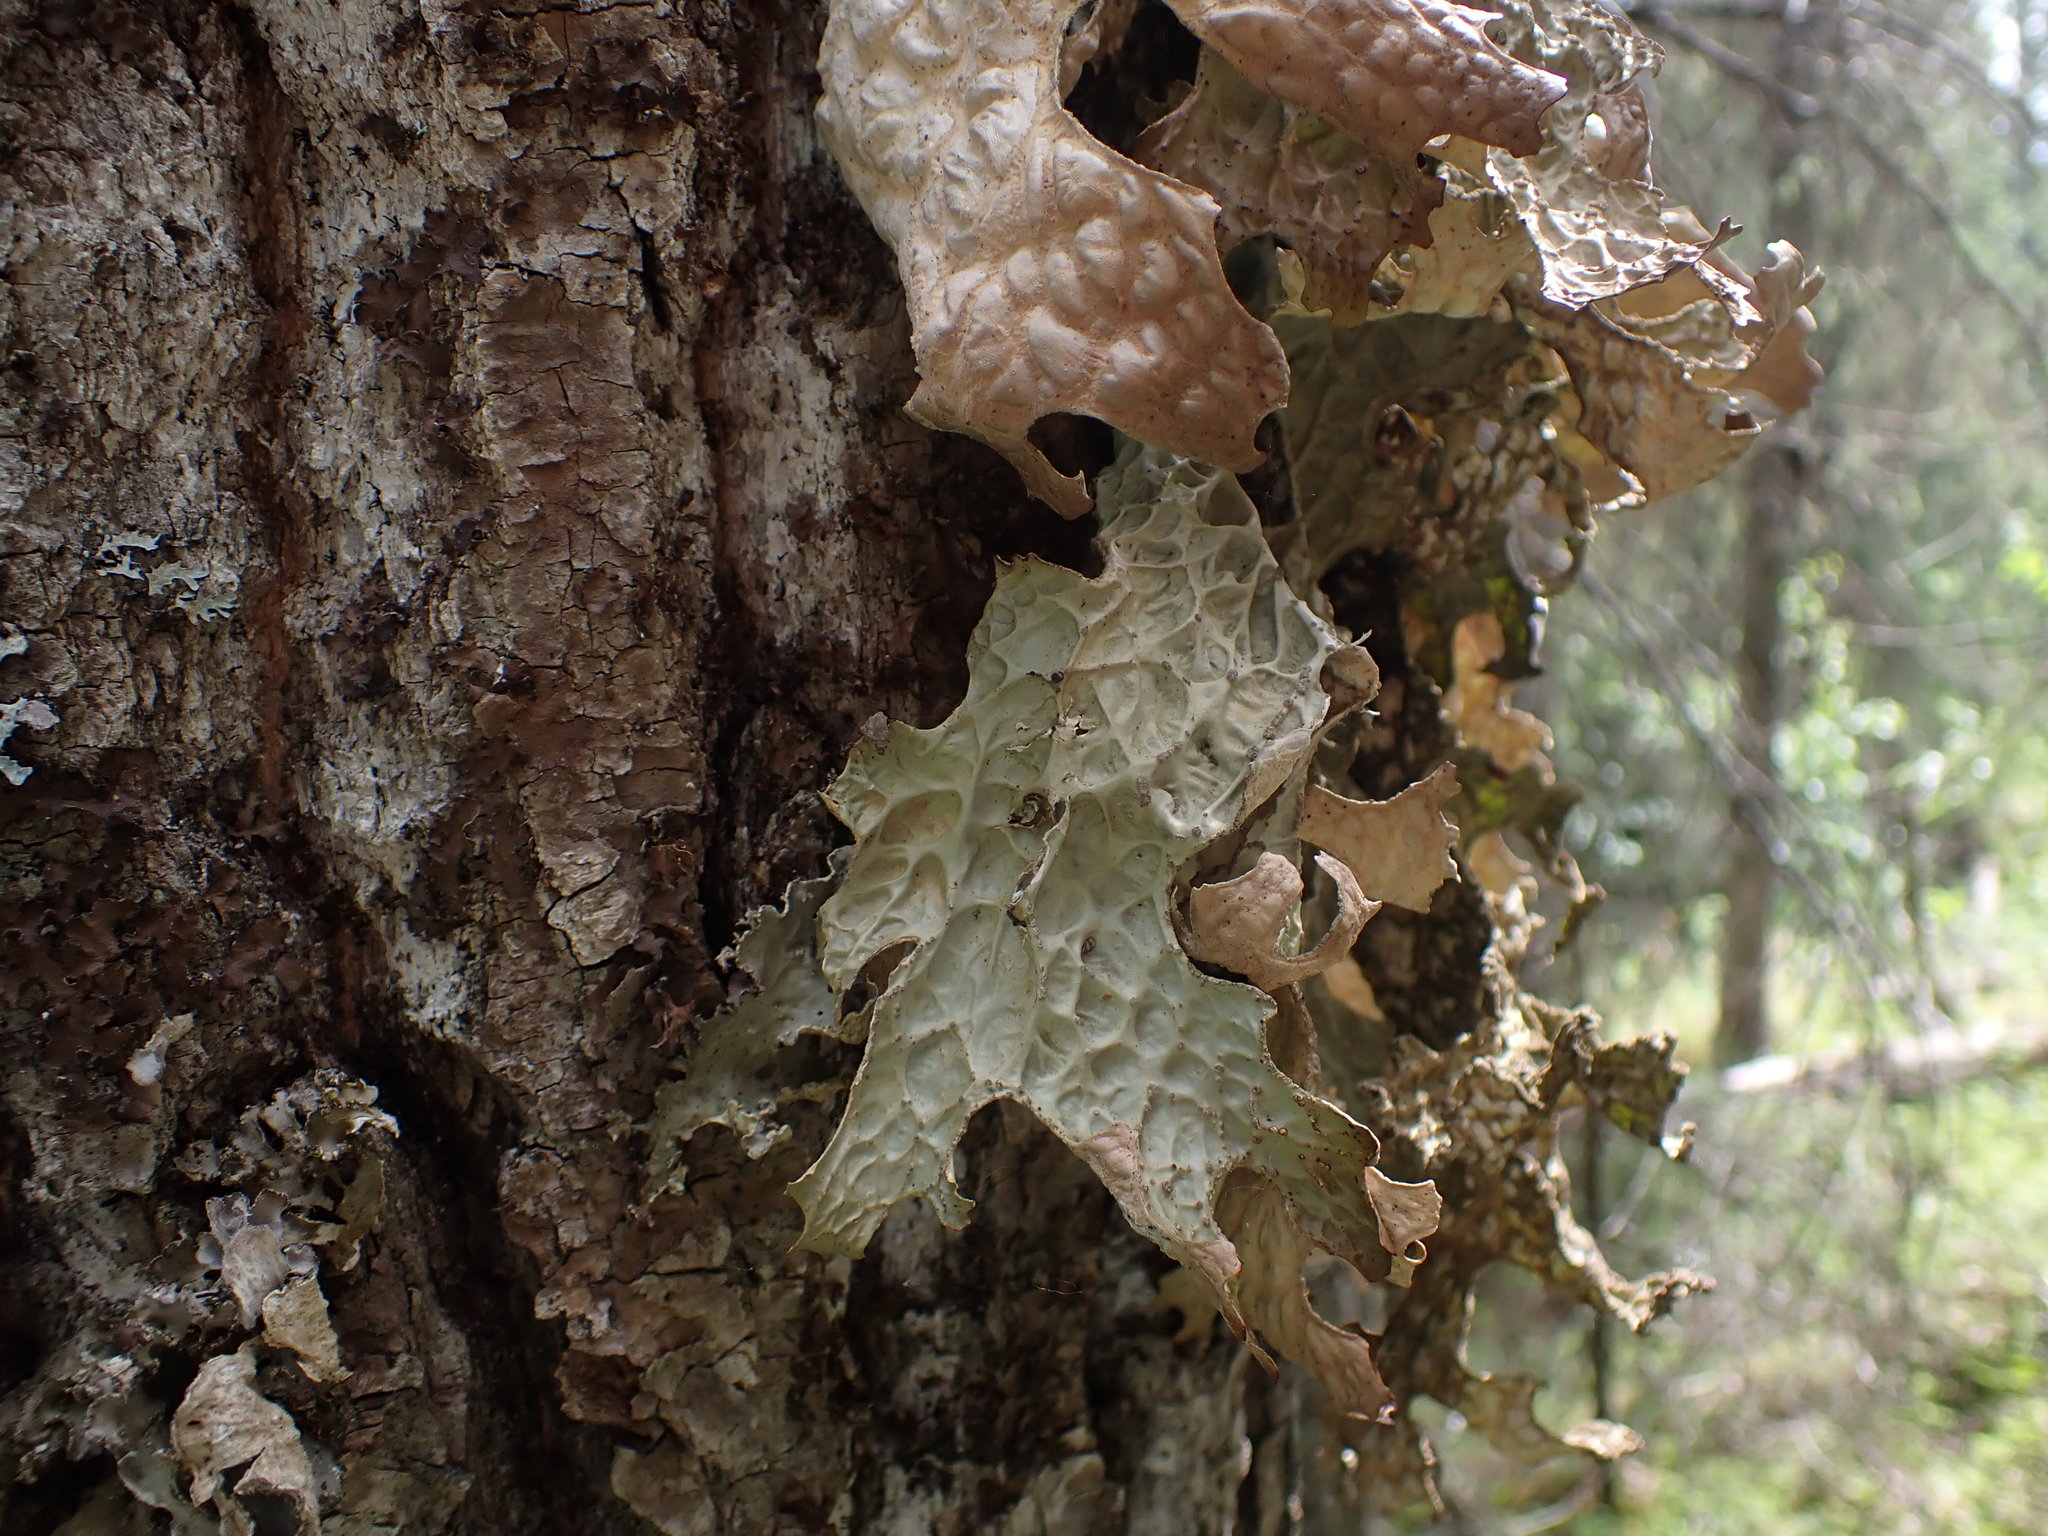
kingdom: Fungi
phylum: Ascomycota
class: Lecanoromycetes
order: Peltigerales
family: Lobariaceae
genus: Lobaria
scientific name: Lobaria pulmonaria
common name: Lungwort
